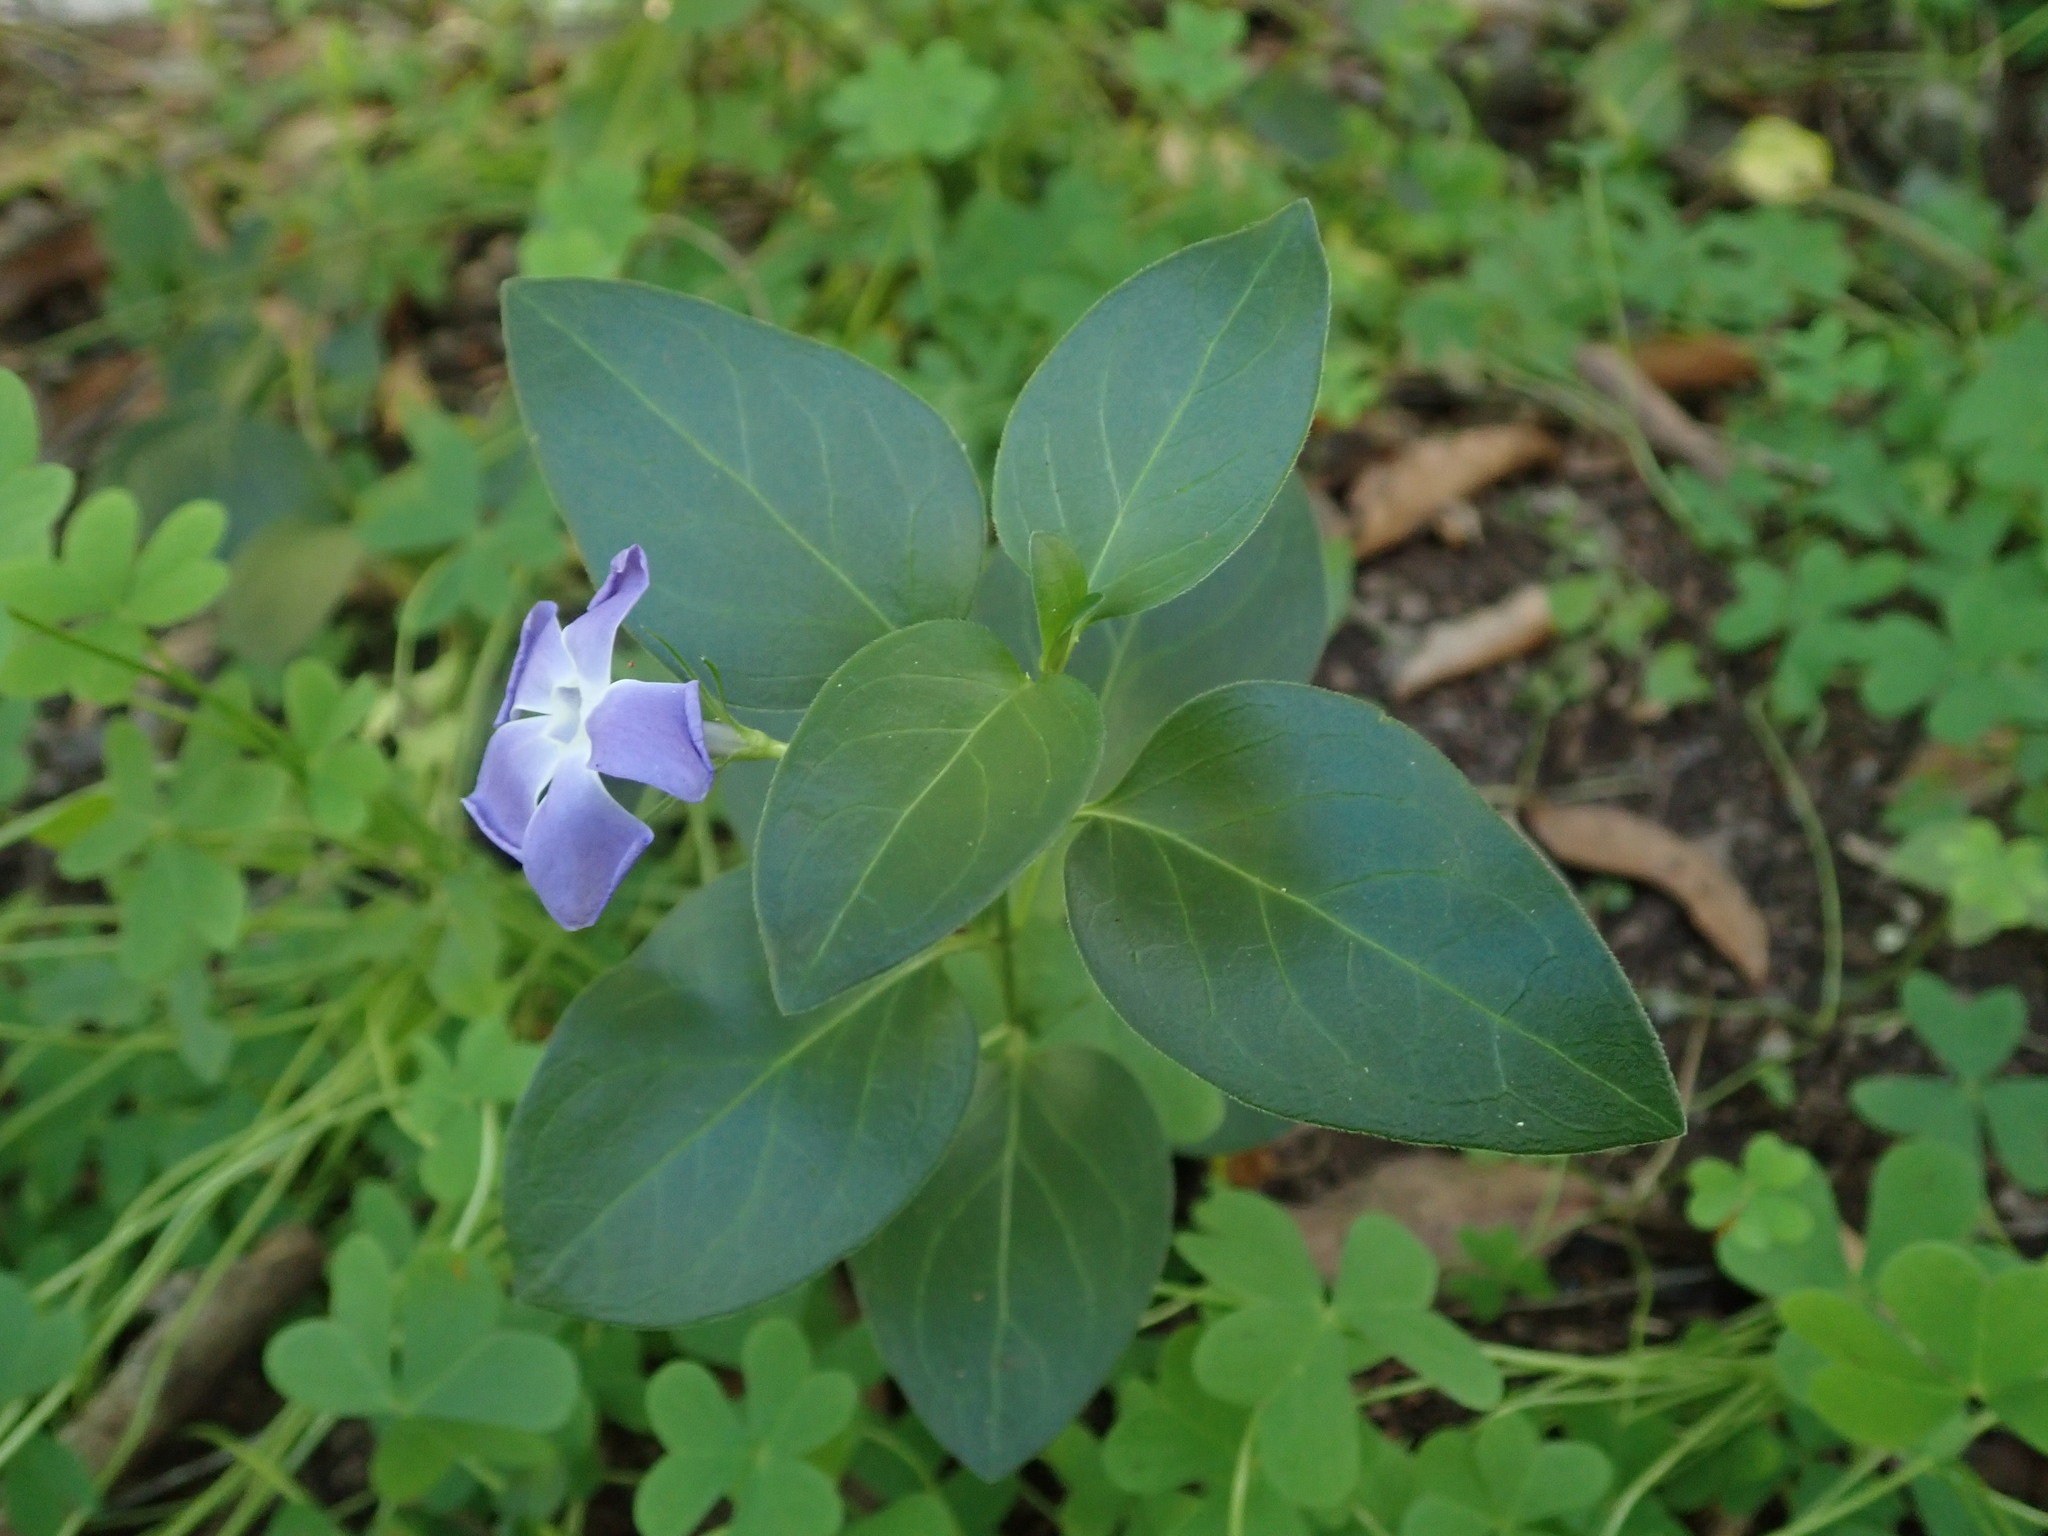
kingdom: Plantae
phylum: Tracheophyta
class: Magnoliopsida
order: Gentianales
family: Apocynaceae
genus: Vinca
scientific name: Vinca major
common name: Greater periwinkle
